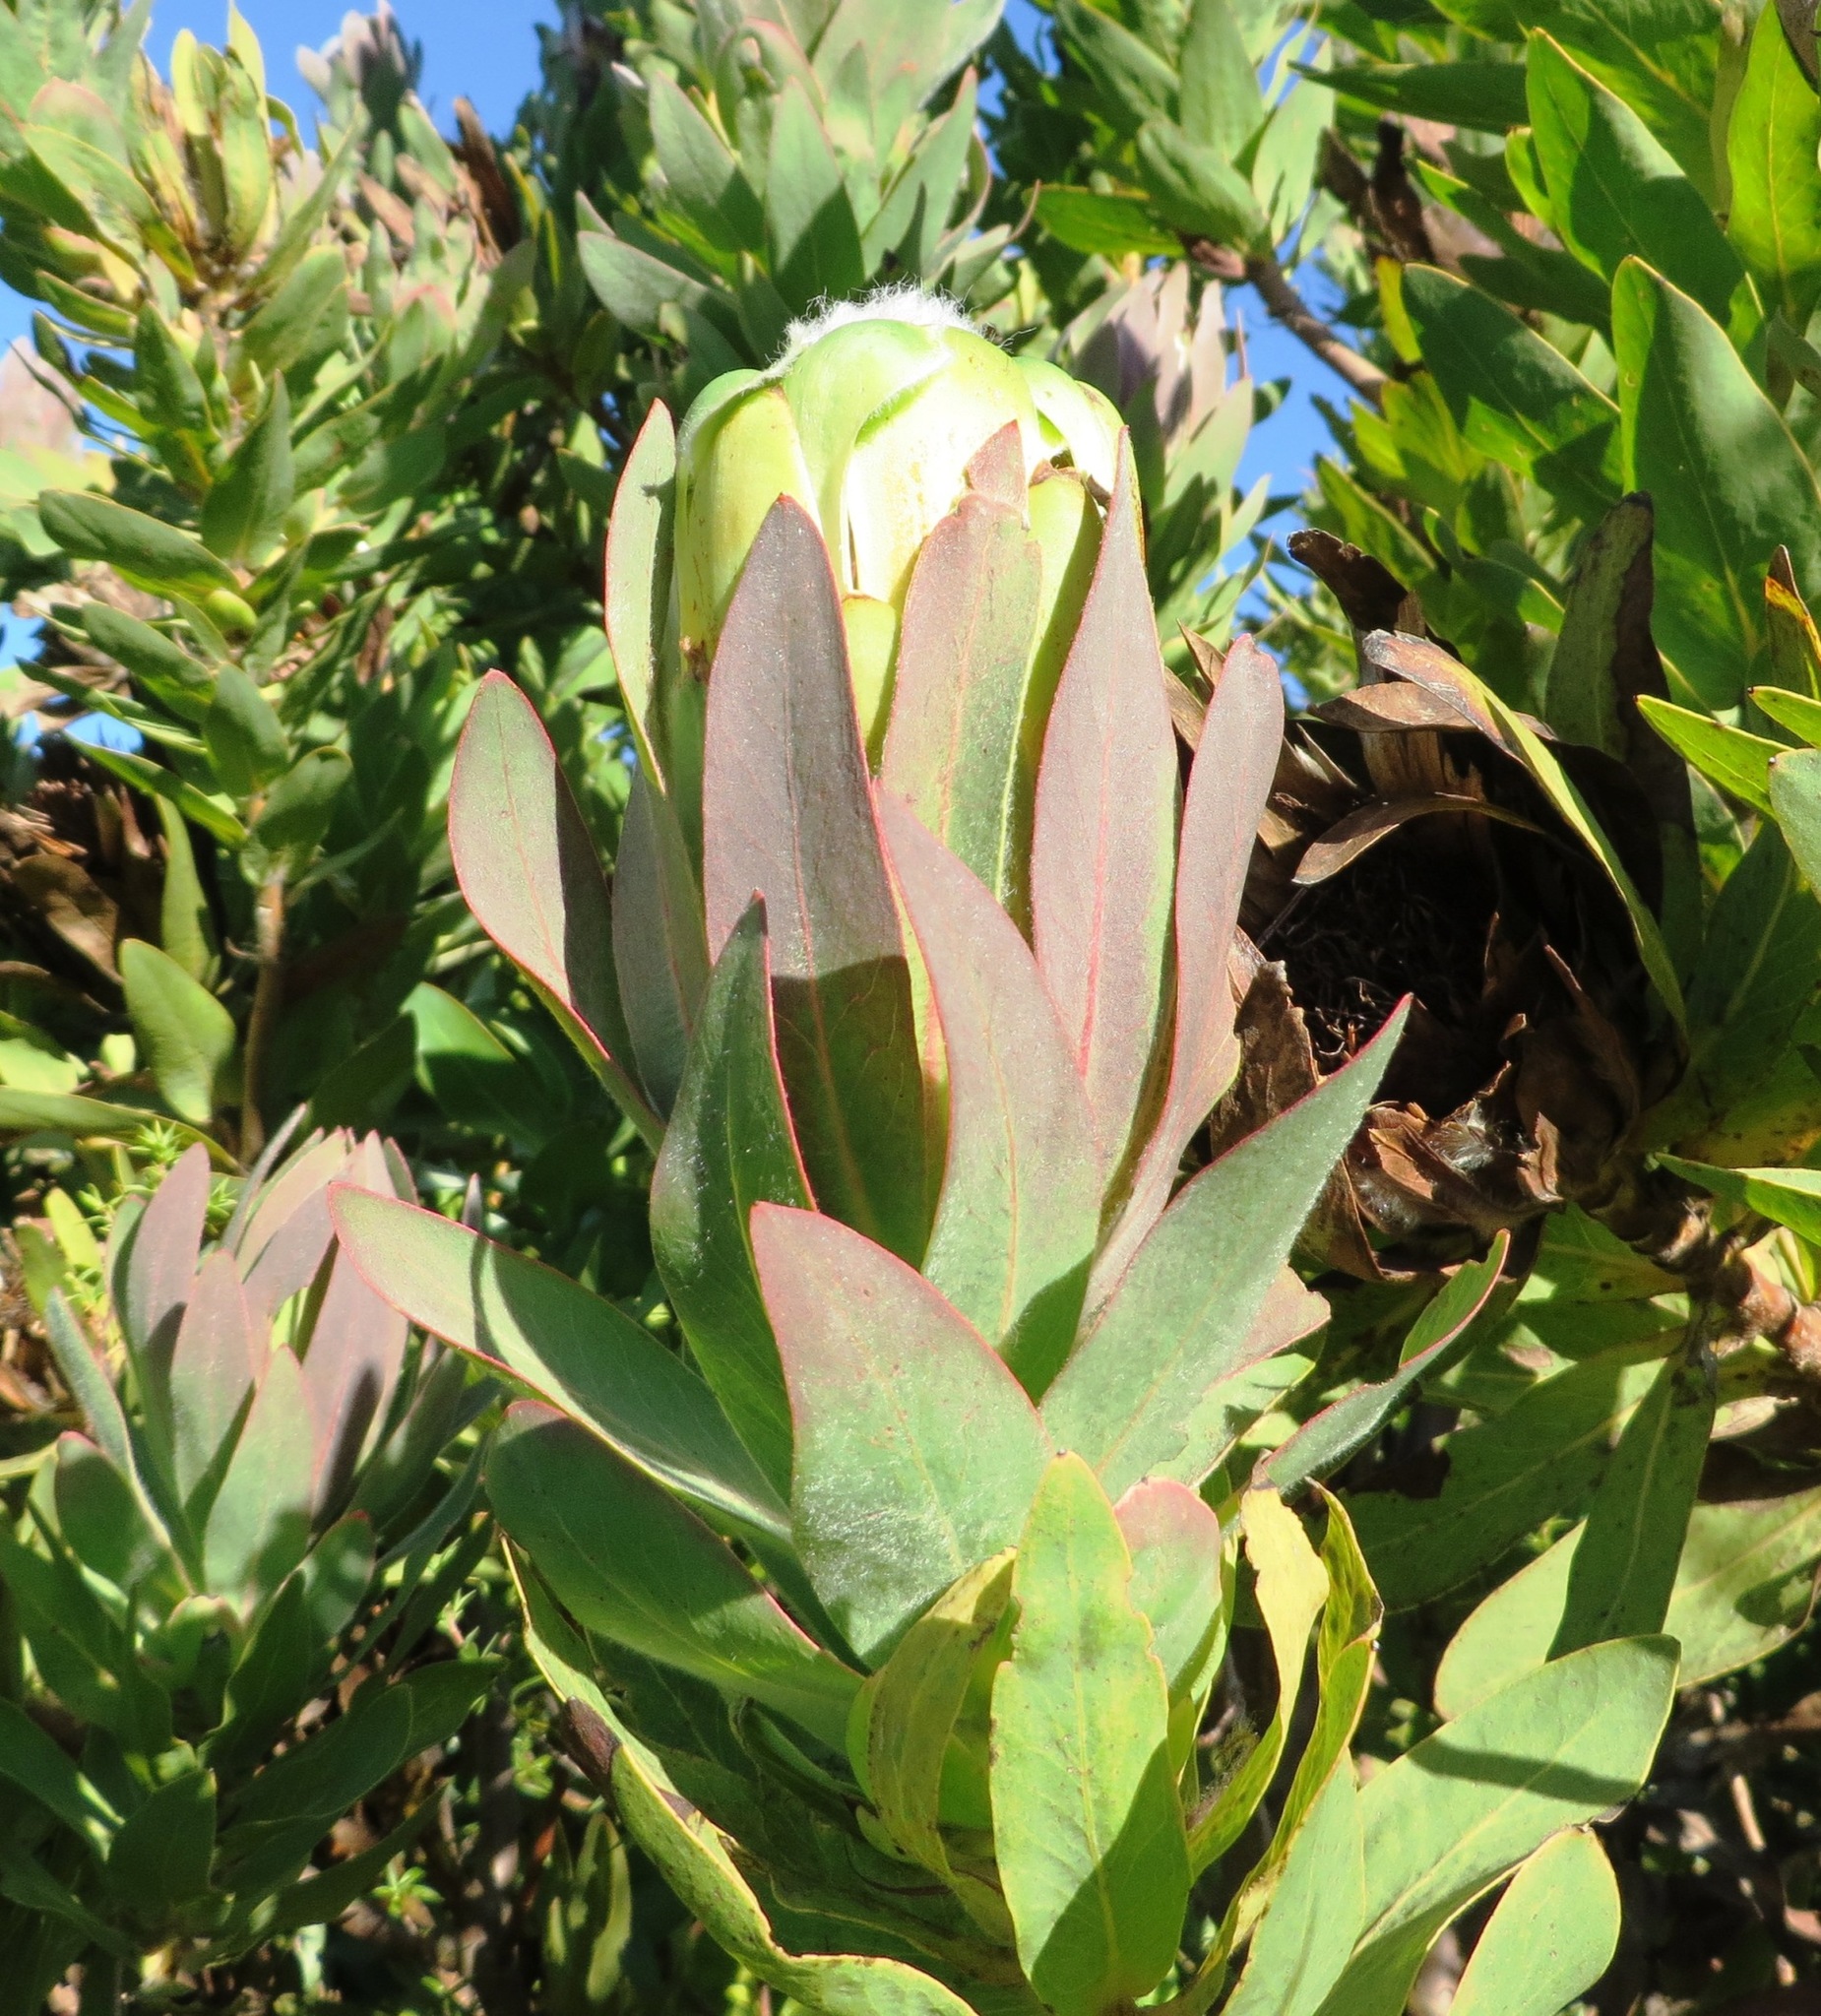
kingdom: Plantae
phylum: Tracheophyta
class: Magnoliopsida
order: Proteales
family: Proteaceae
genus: Protea
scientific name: Protea coronata
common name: Green sugarbush
